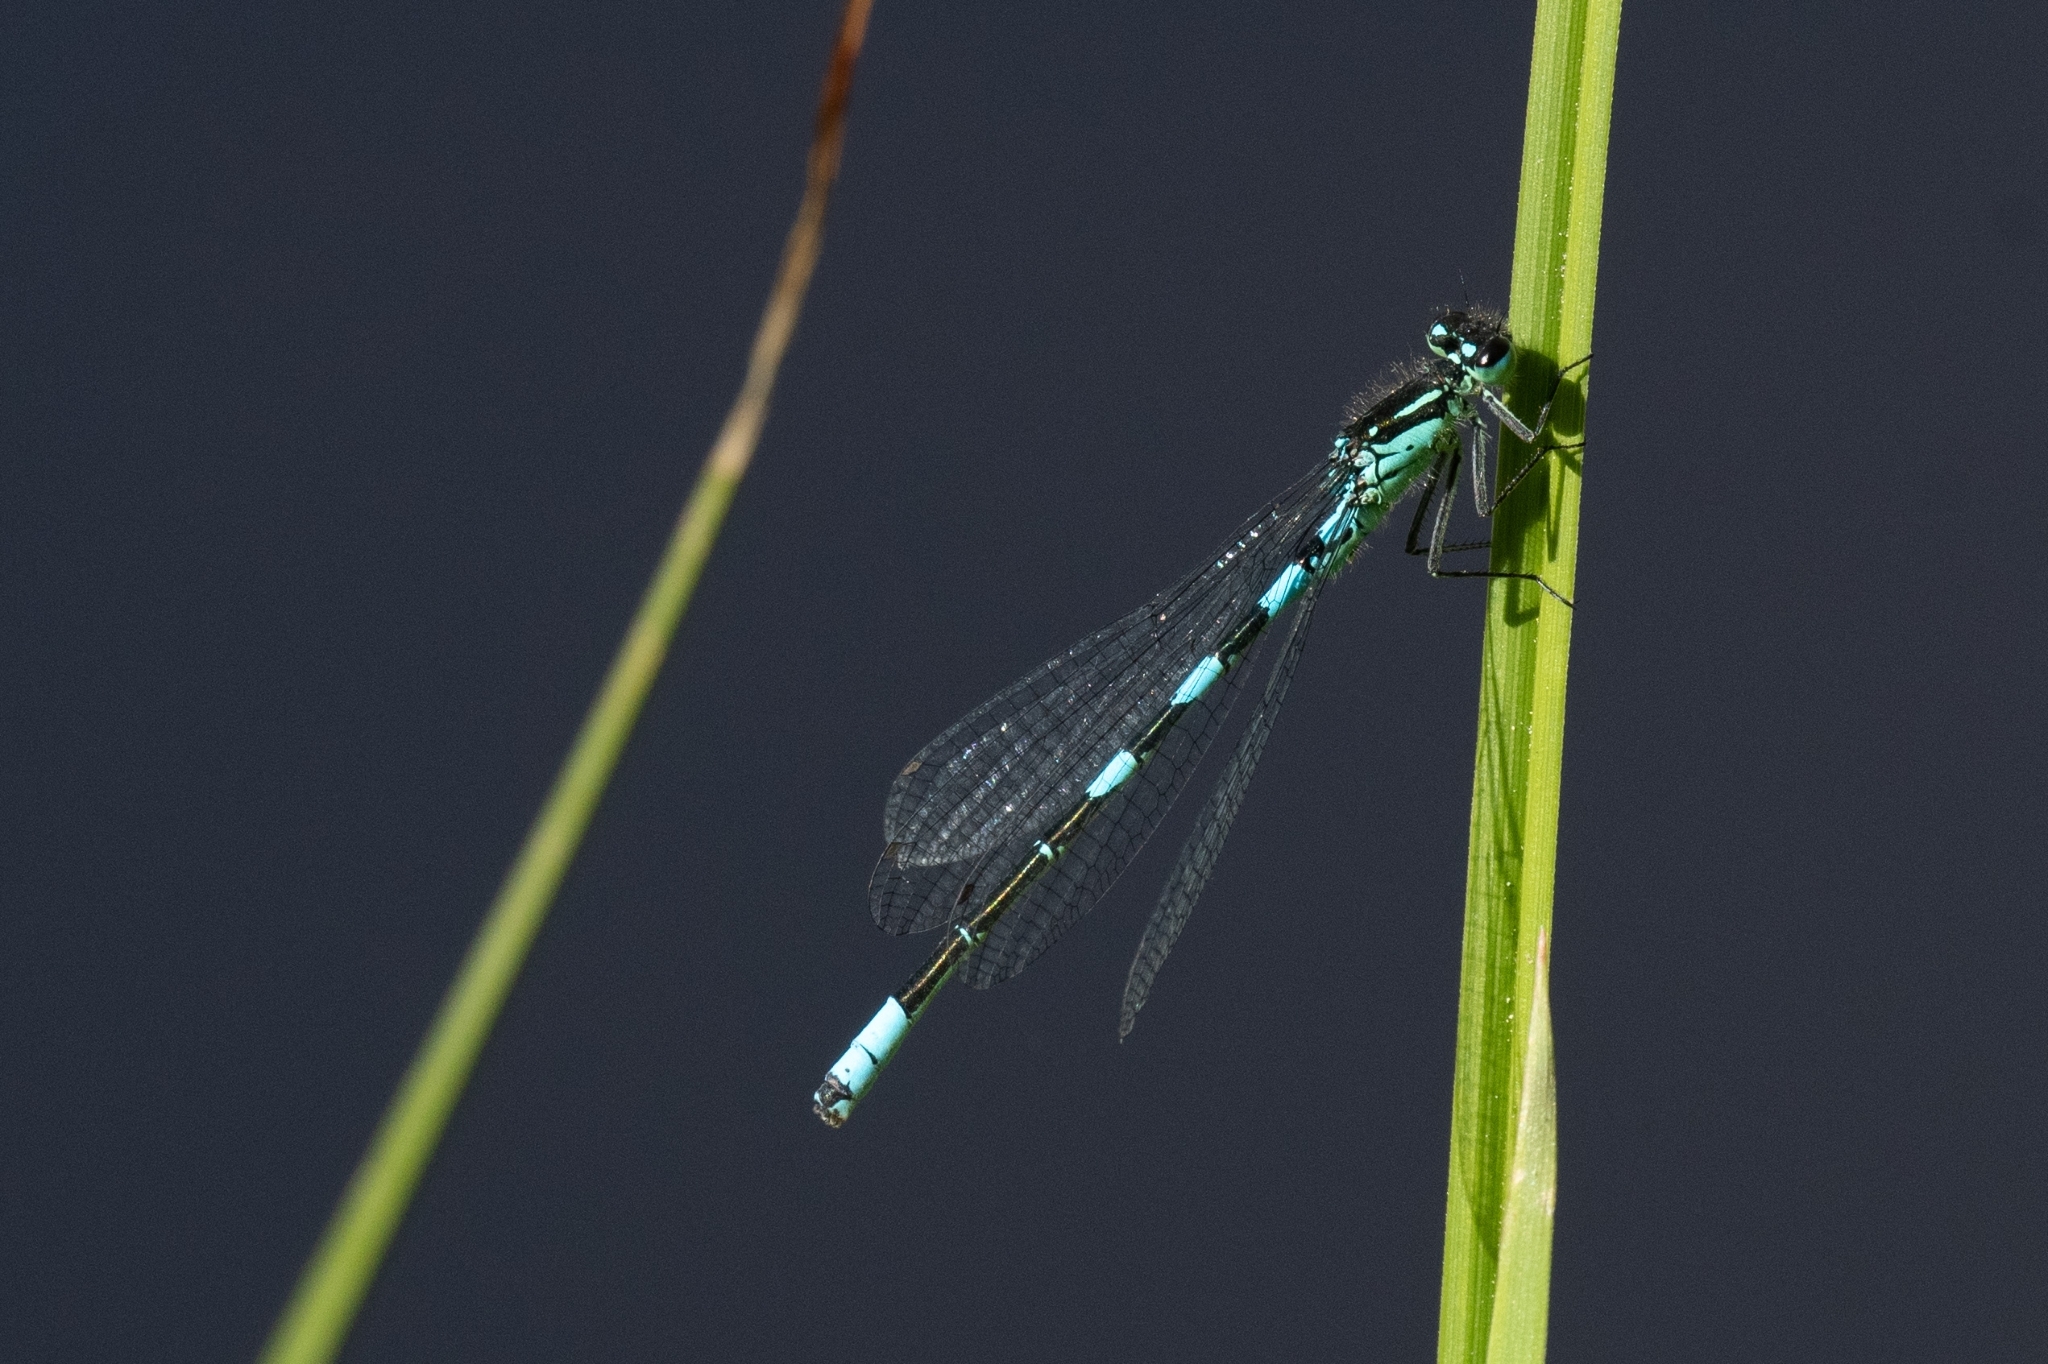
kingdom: Animalia
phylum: Arthropoda
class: Insecta
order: Odonata
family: Coenagrionidae
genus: Coenagrion
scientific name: Coenagrion resolutum
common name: Taiga bluet
